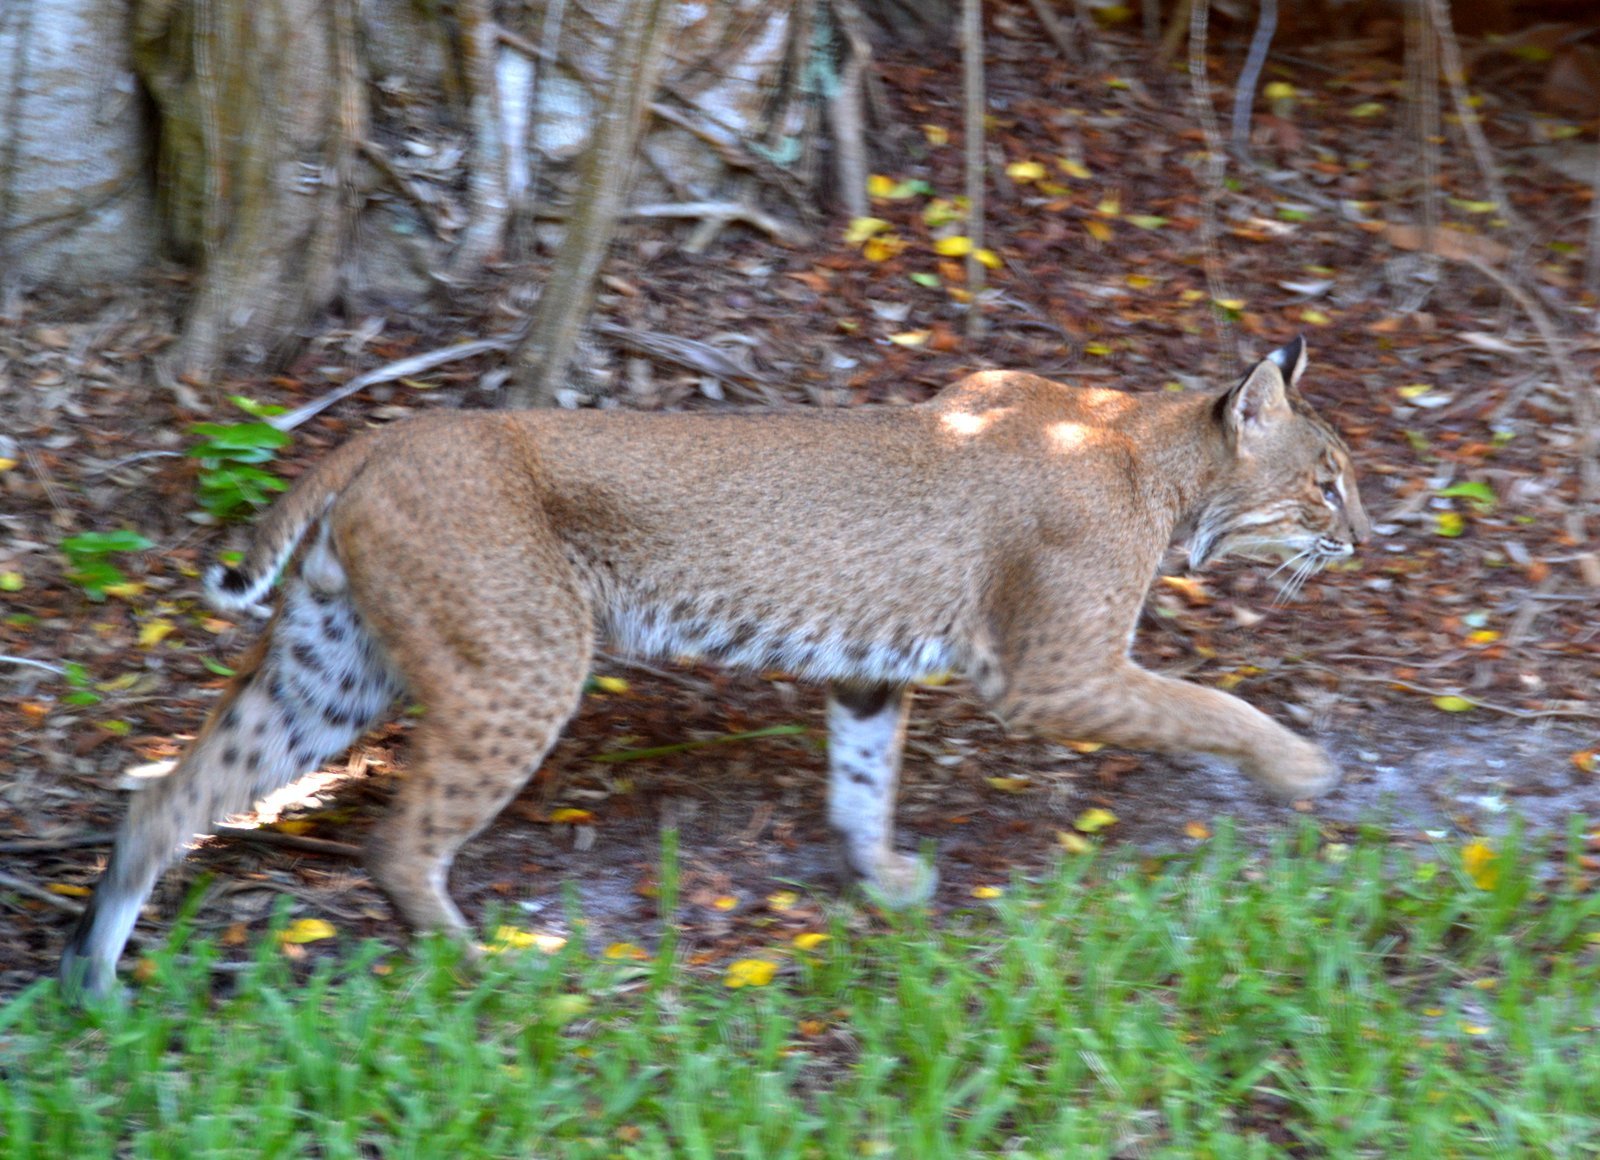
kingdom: Animalia
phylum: Chordata
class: Mammalia
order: Carnivora
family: Felidae
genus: Lynx
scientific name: Lynx rufus
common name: Bobcat
